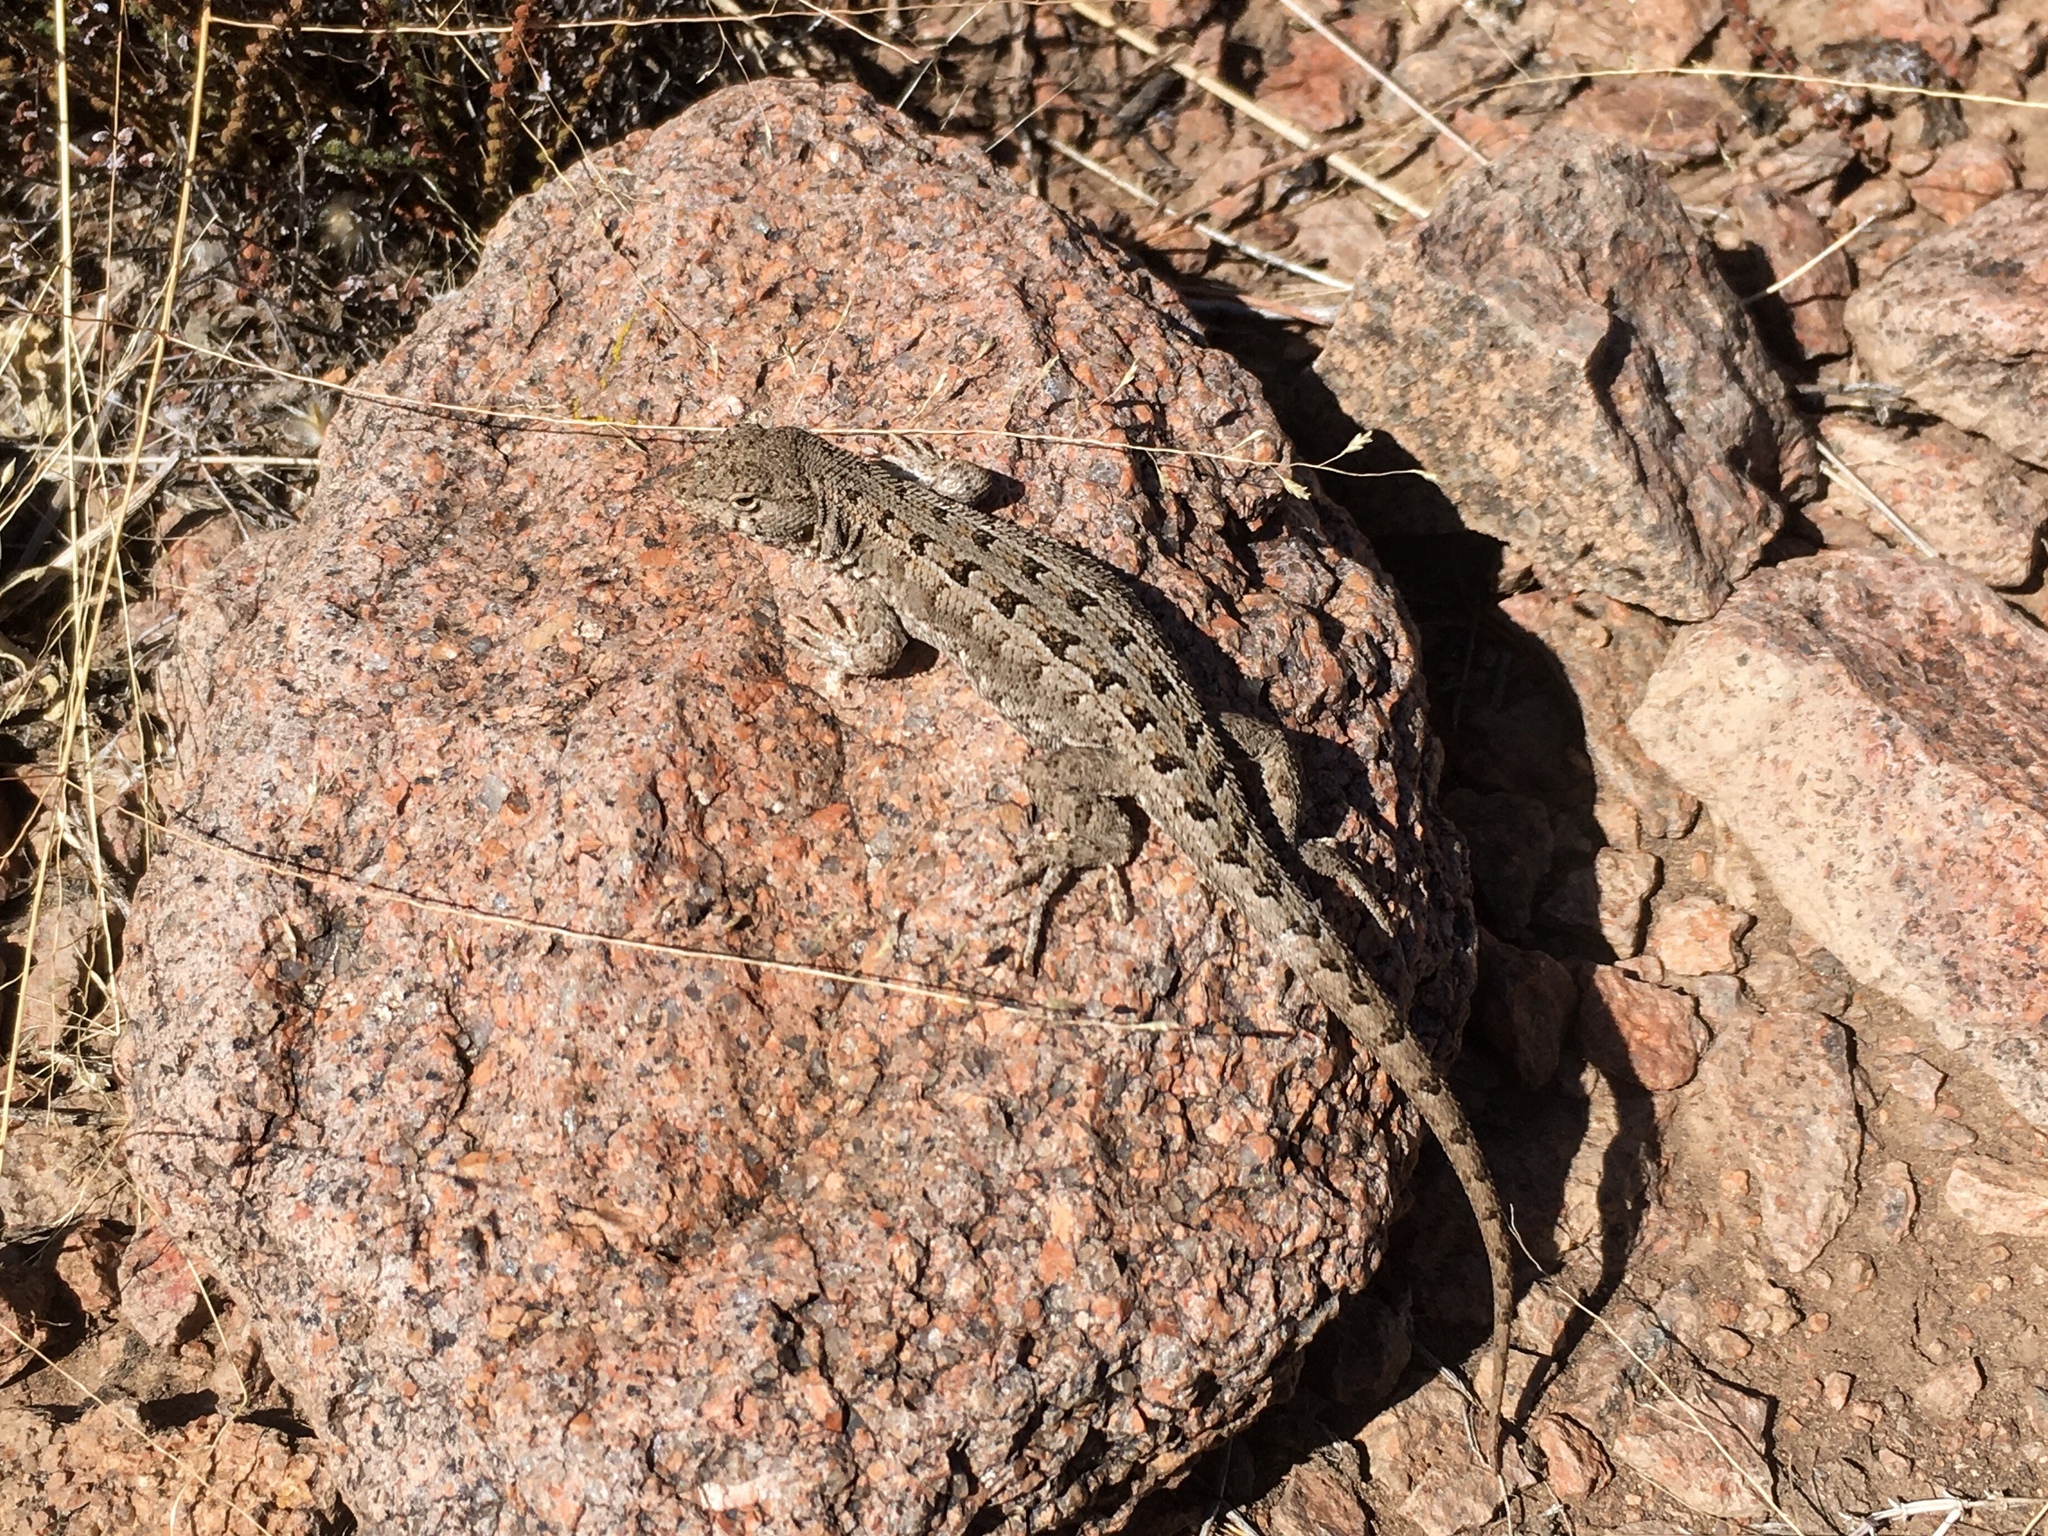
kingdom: Animalia
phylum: Chordata
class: Squamata
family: Liolaemidae
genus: Liolaemus
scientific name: Liolaemus wiegmannii
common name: Wiegmann's tree iguana
